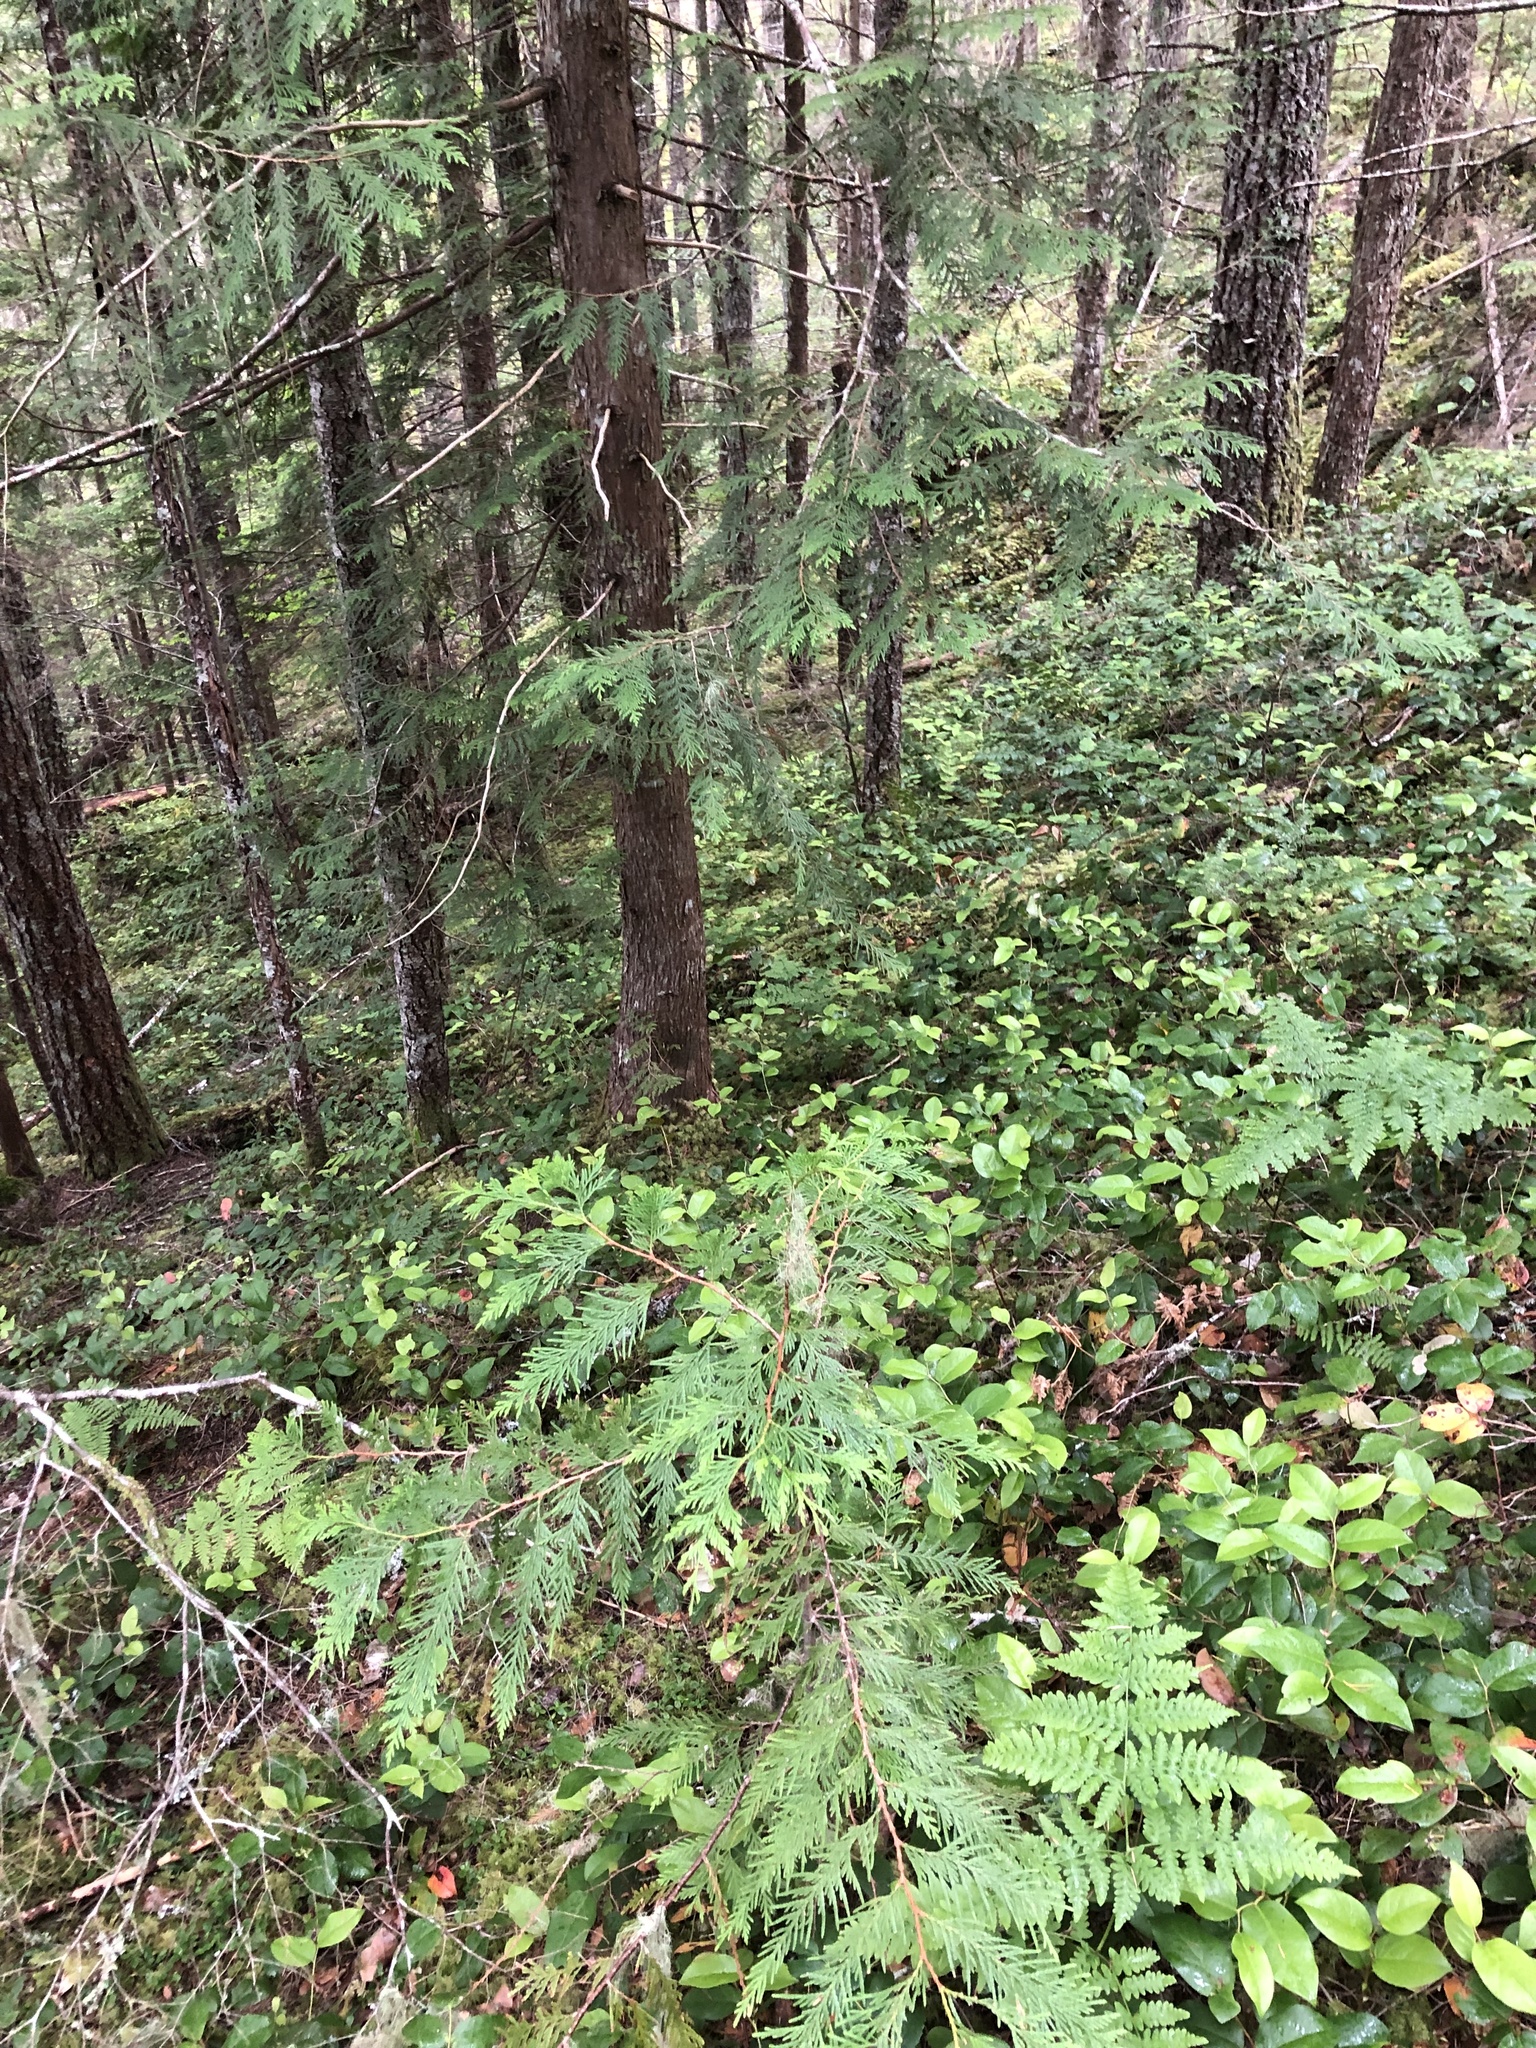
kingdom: Plantae
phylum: Tracheophyta
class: Pinopsida
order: Pinales
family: Cupressaceae
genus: Thuja
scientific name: Thuja plicata
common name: Western red-cedar
